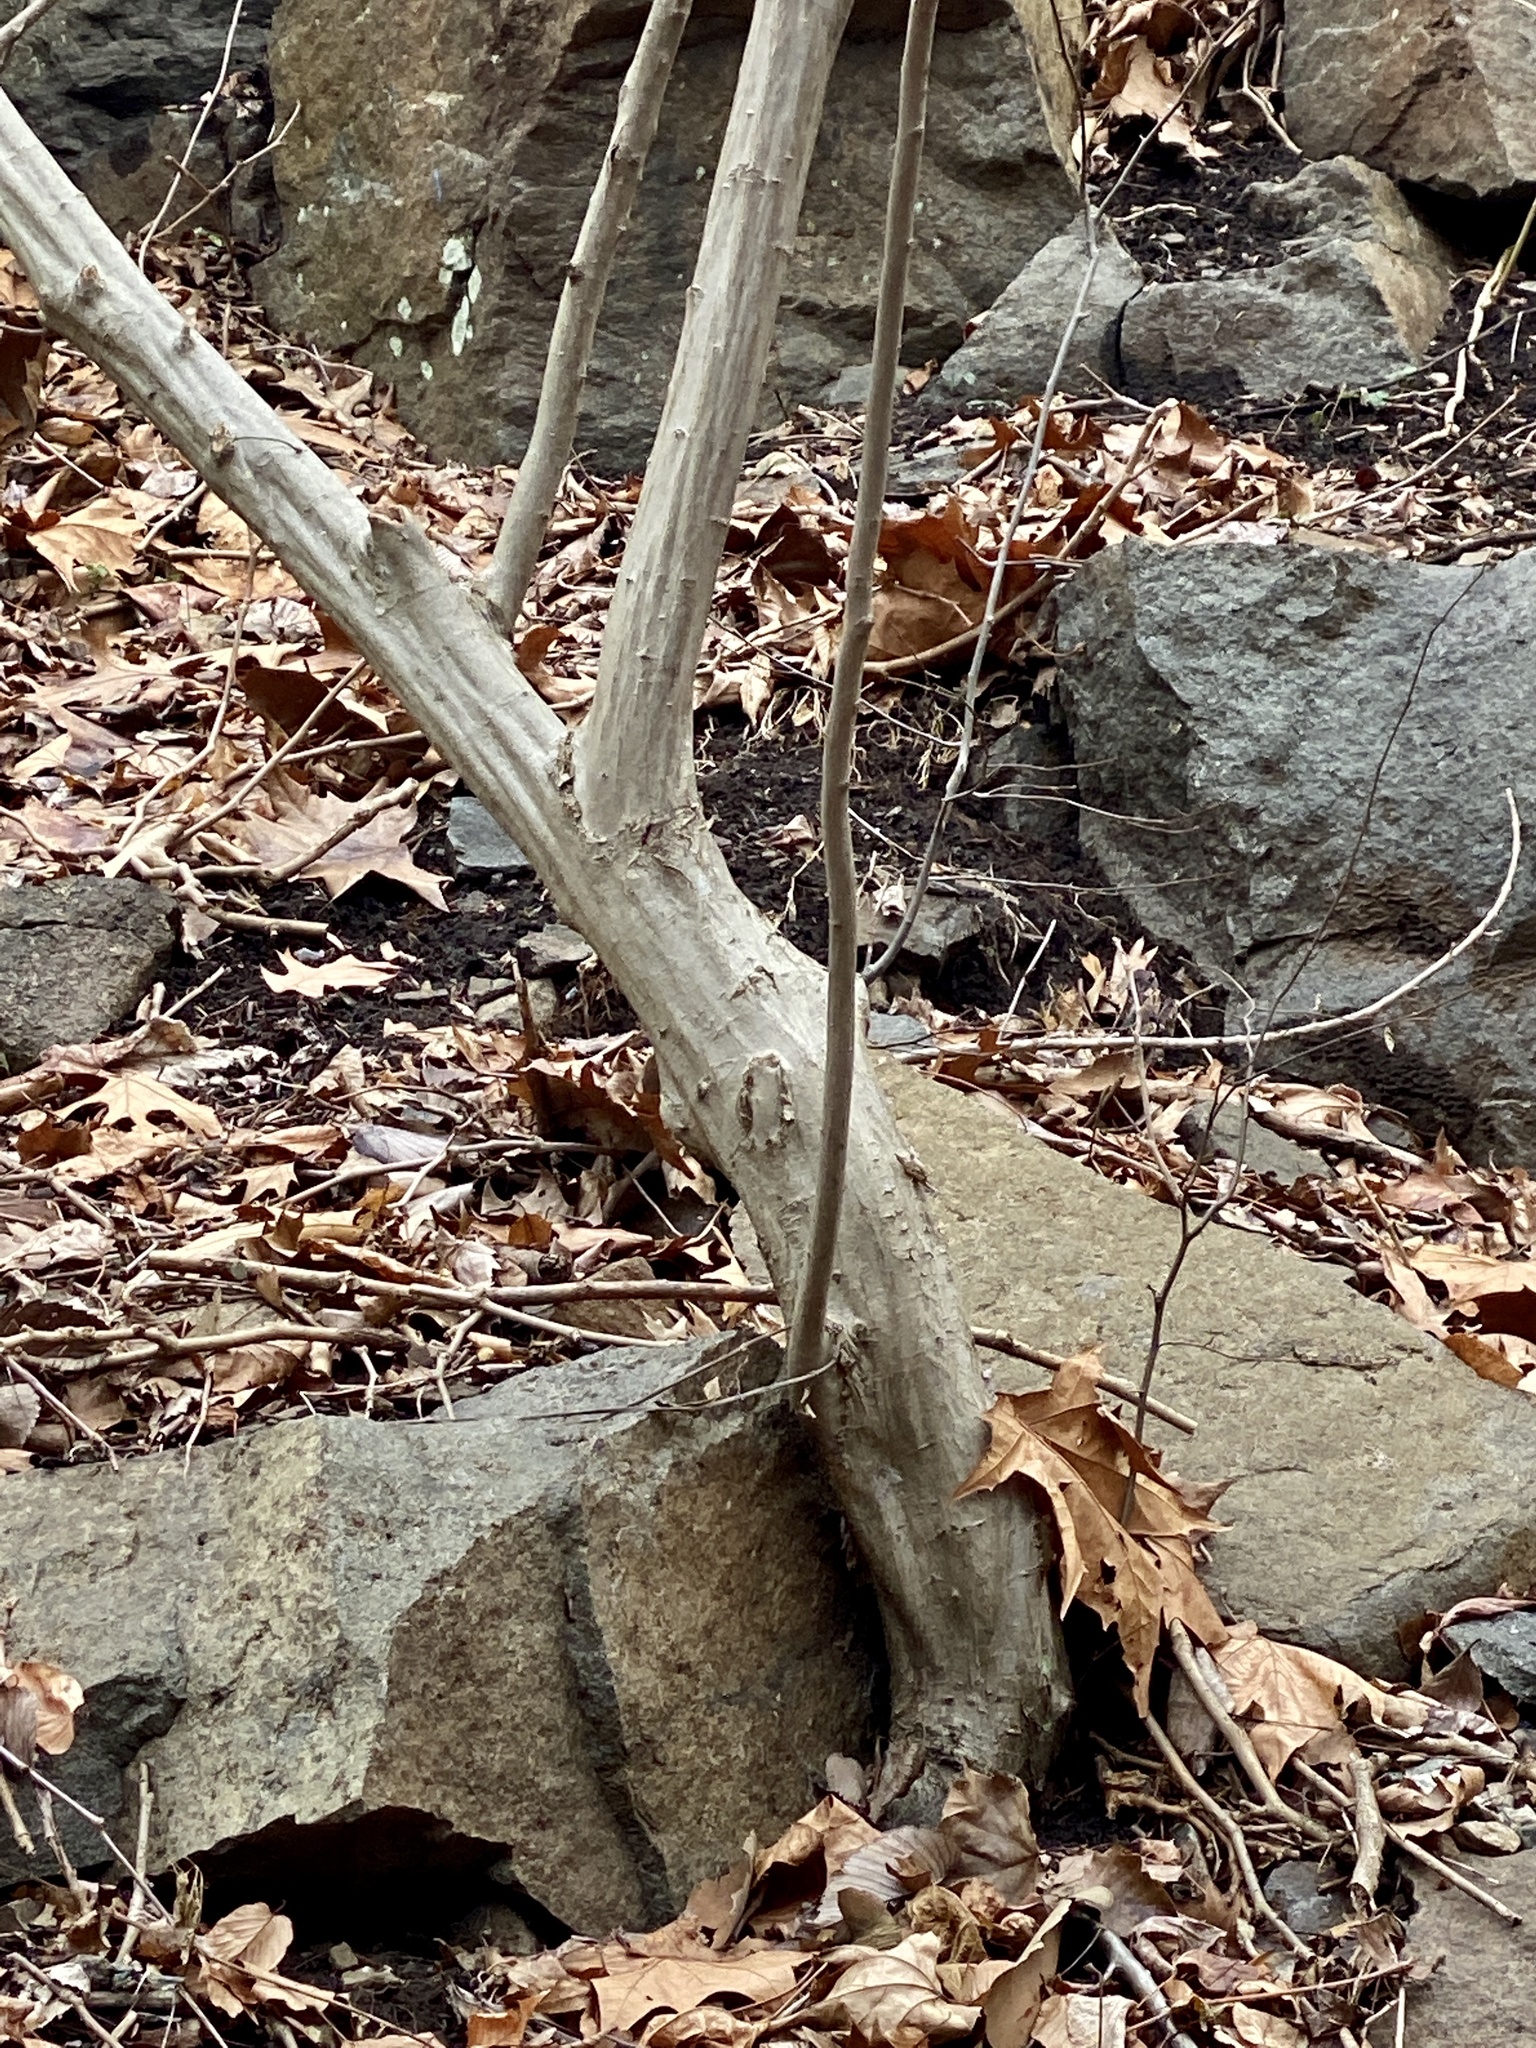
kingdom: Plantae
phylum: Tracheophyta
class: Magnoliopsida
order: Fagales
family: Betulaceae
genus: Carpinus
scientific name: Carpinus caroliniana
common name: American hornbeam
